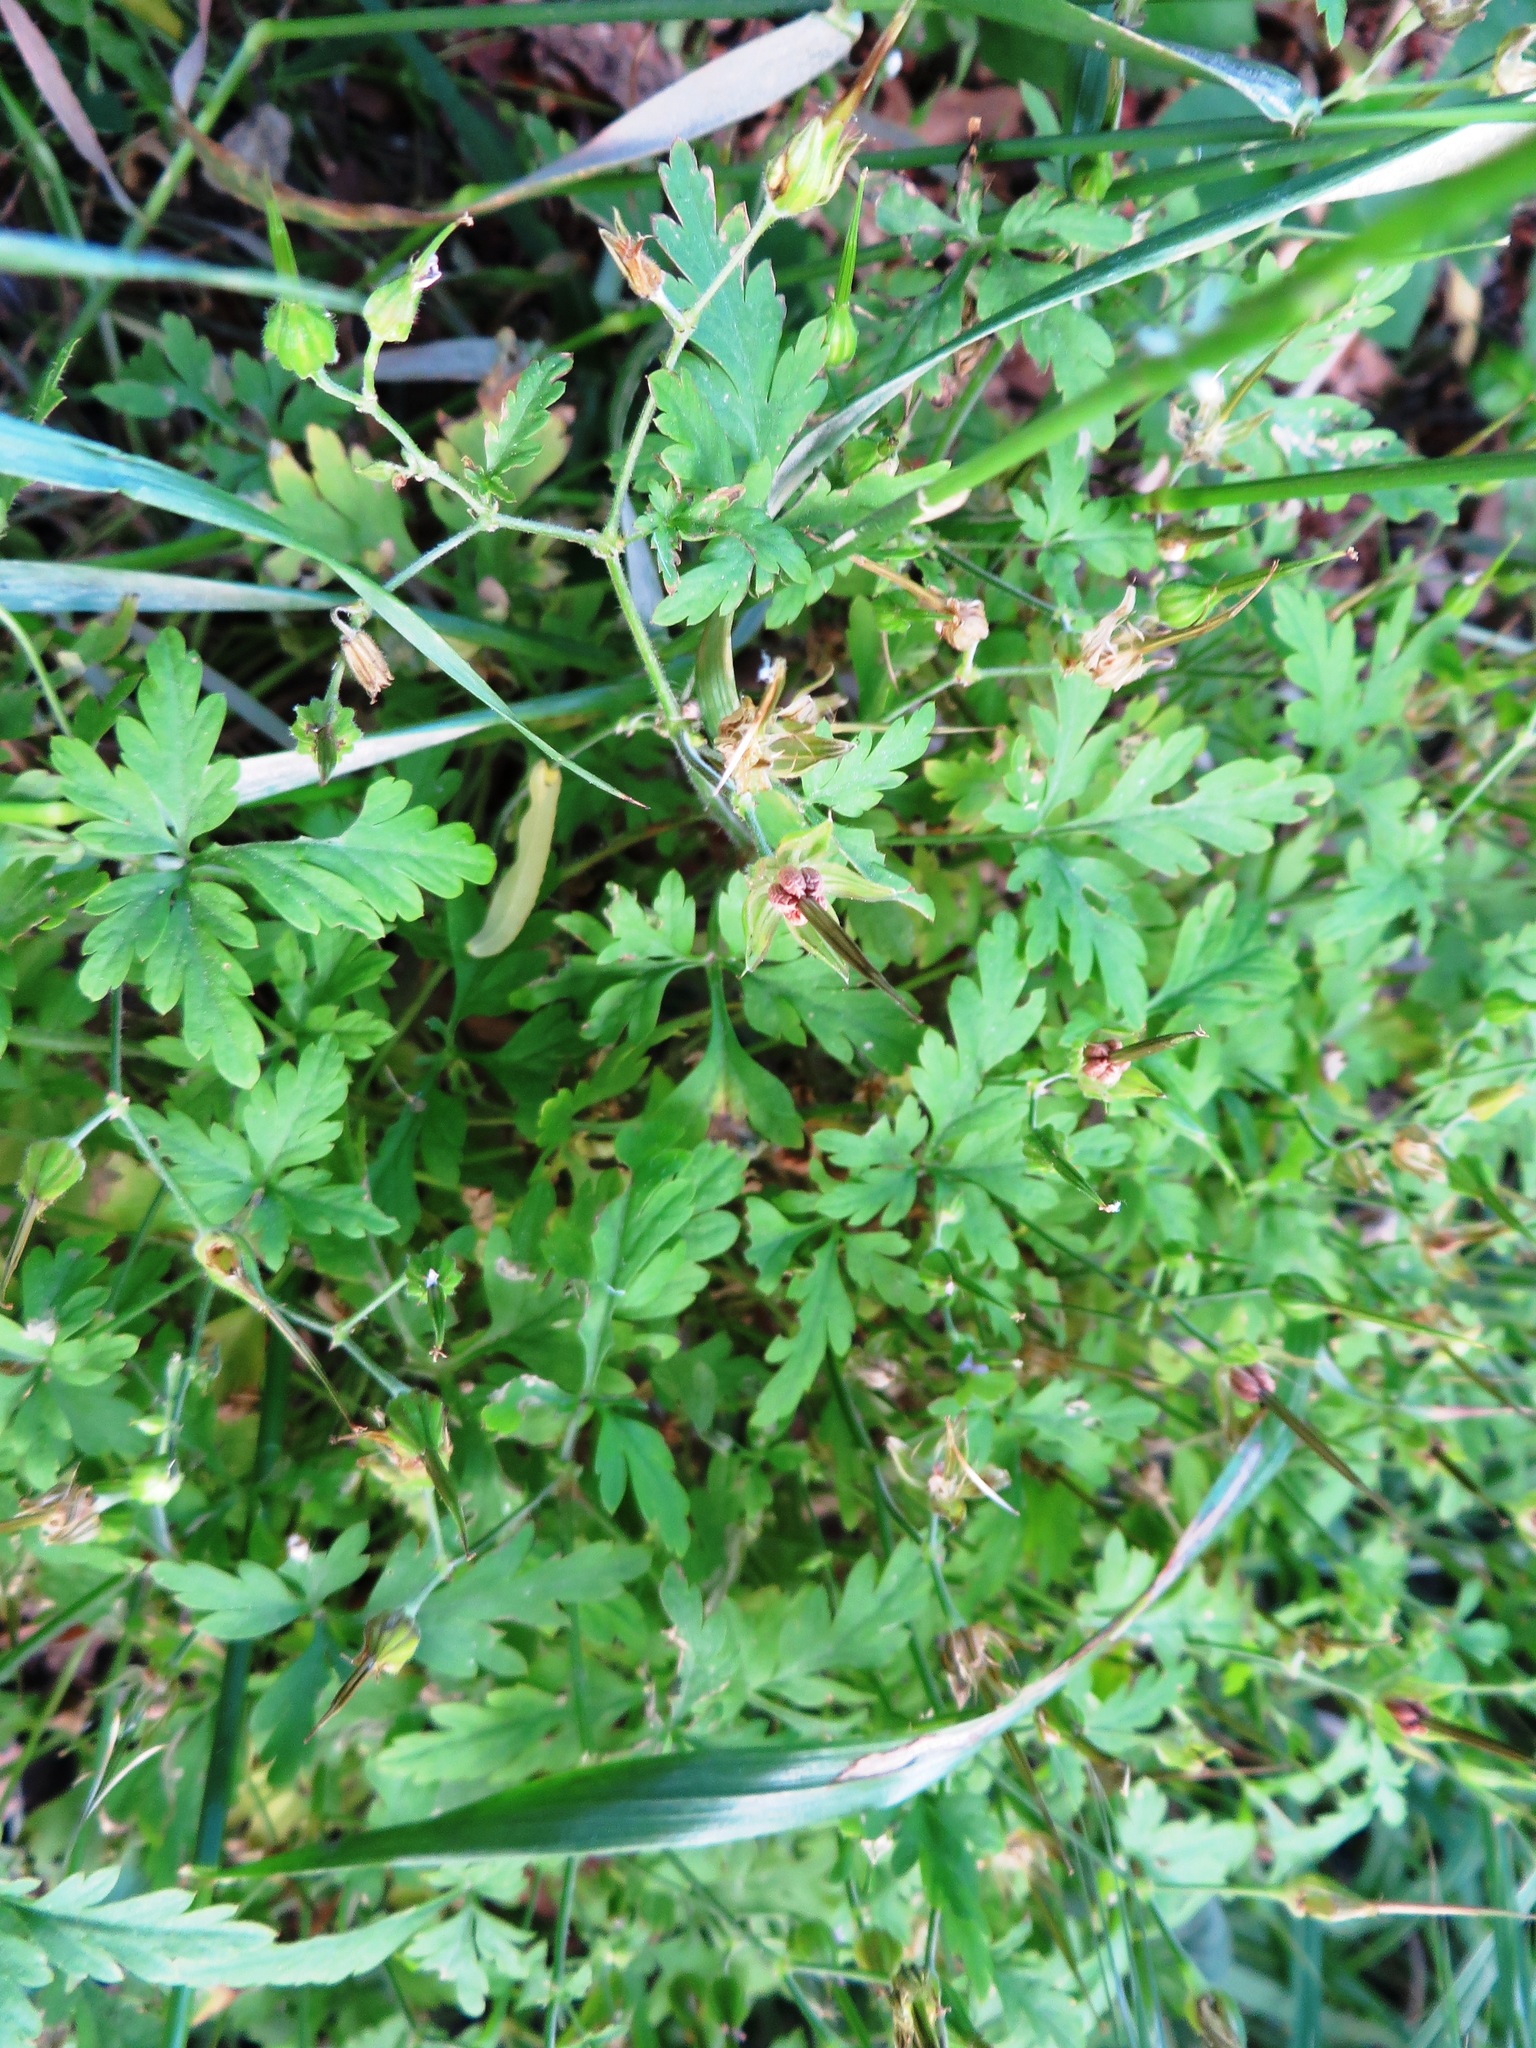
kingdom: Plantae
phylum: Tracheophyta
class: Magnoliopsida
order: Geraniales
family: Geraniaceae
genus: Geranium
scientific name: Geranium purpureum
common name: Little-robin
